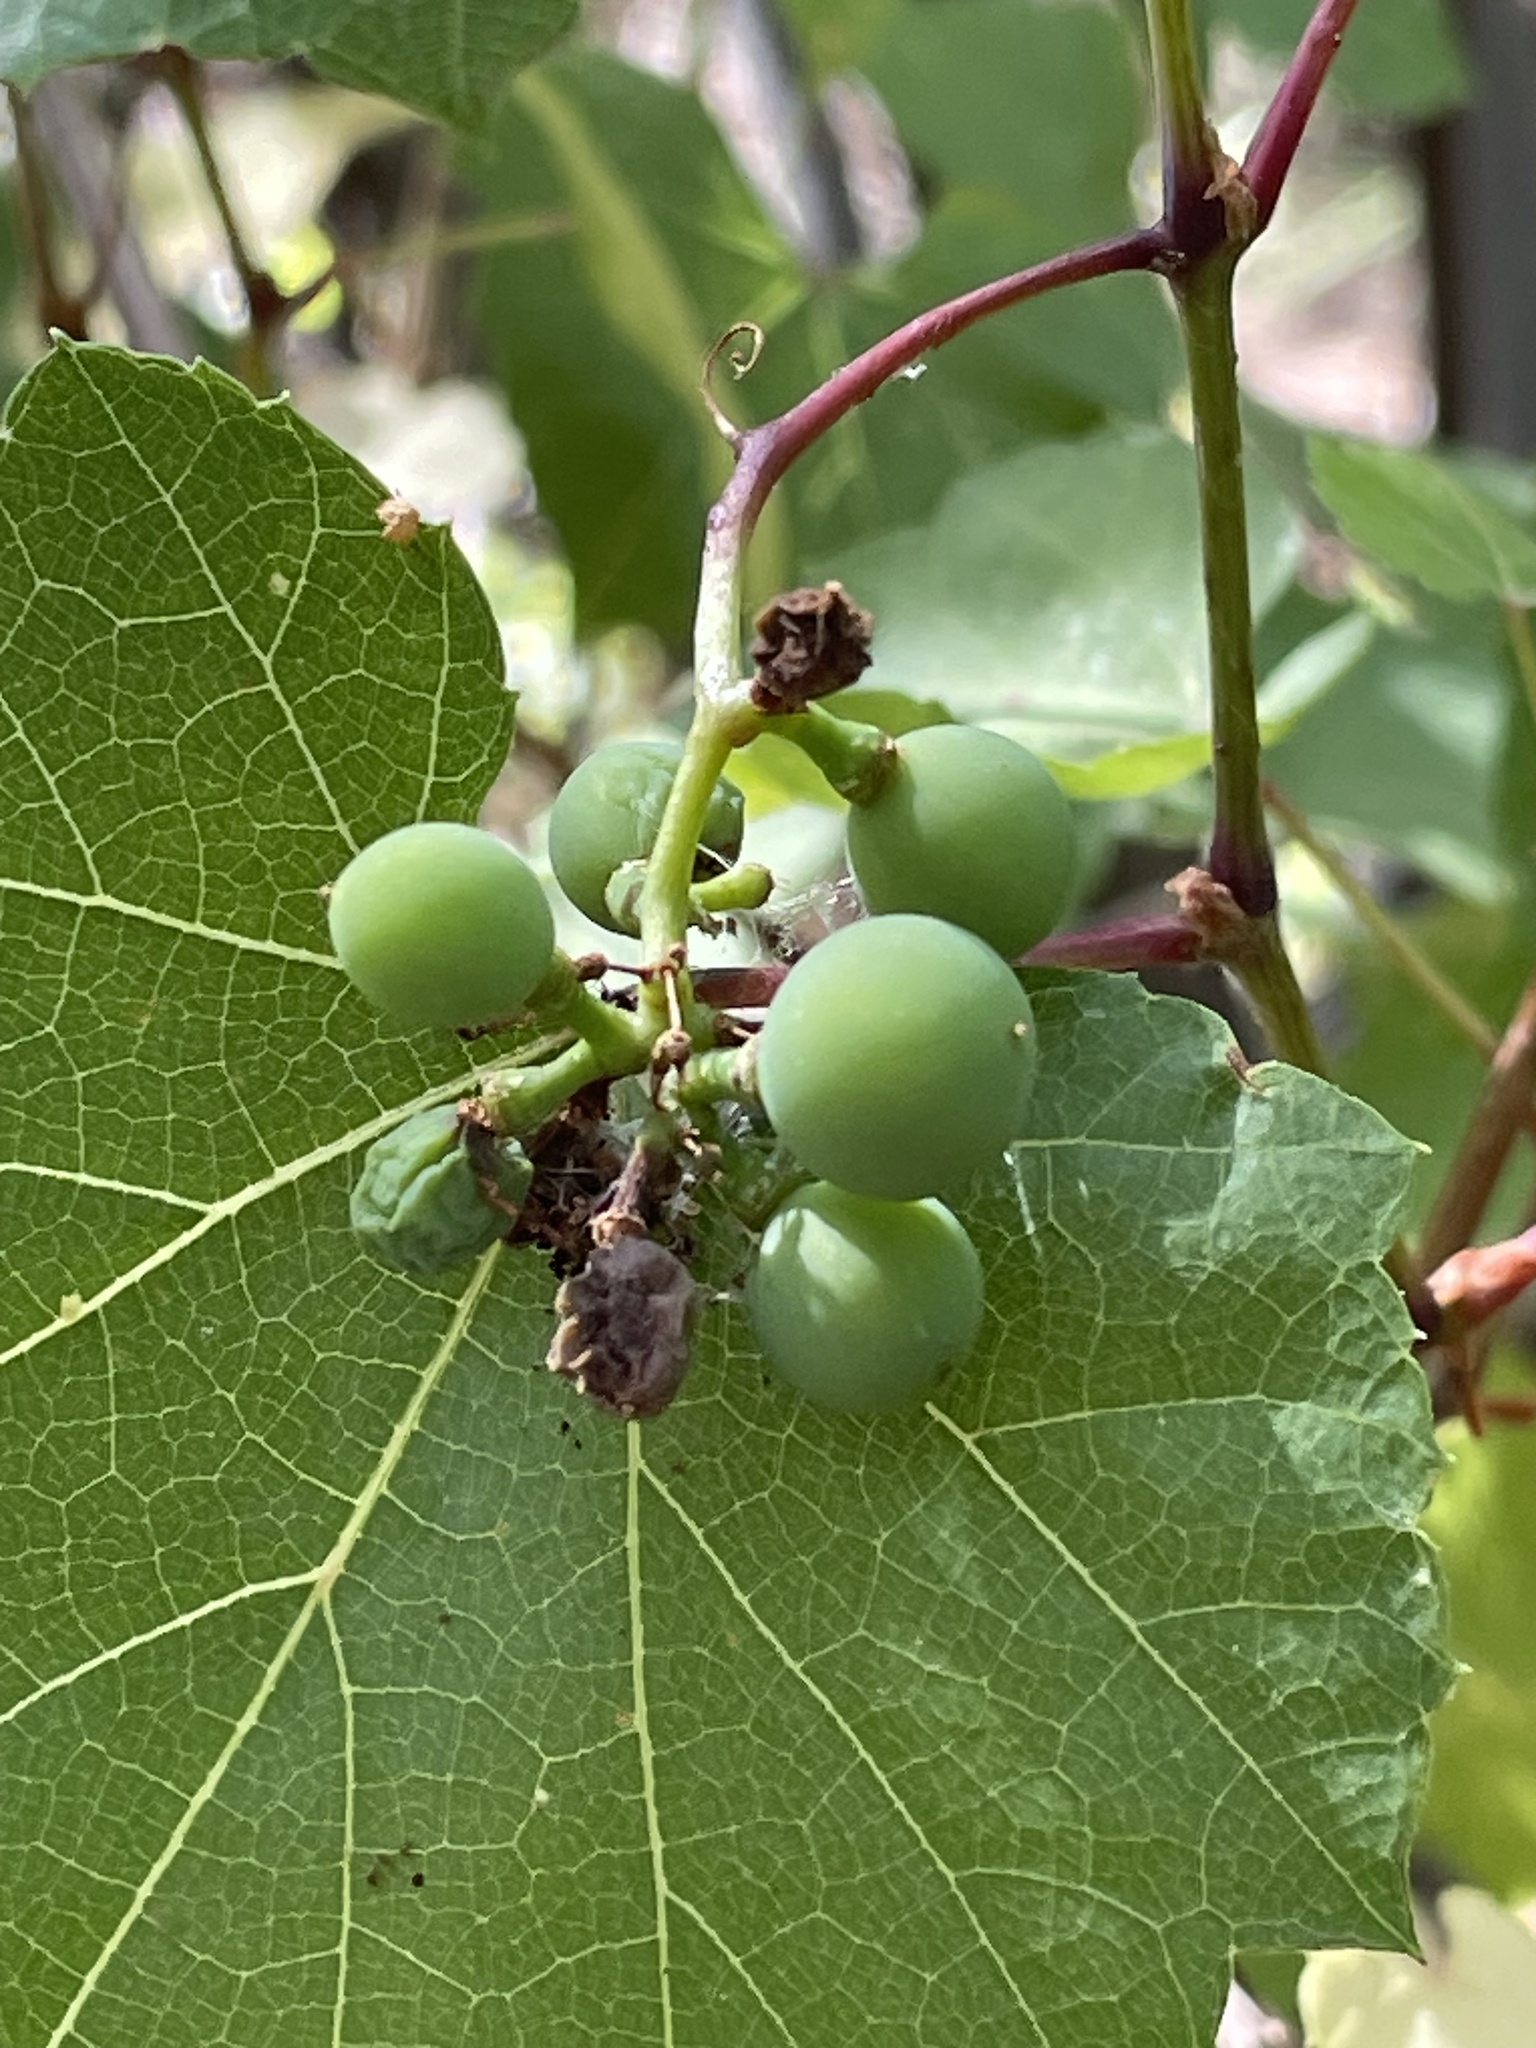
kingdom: Plantae
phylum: Tracheophyta
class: Magnoliopsida
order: Vitales
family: Vitaceae
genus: Vitis
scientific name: Vitis arizonica
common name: Canyon grape
